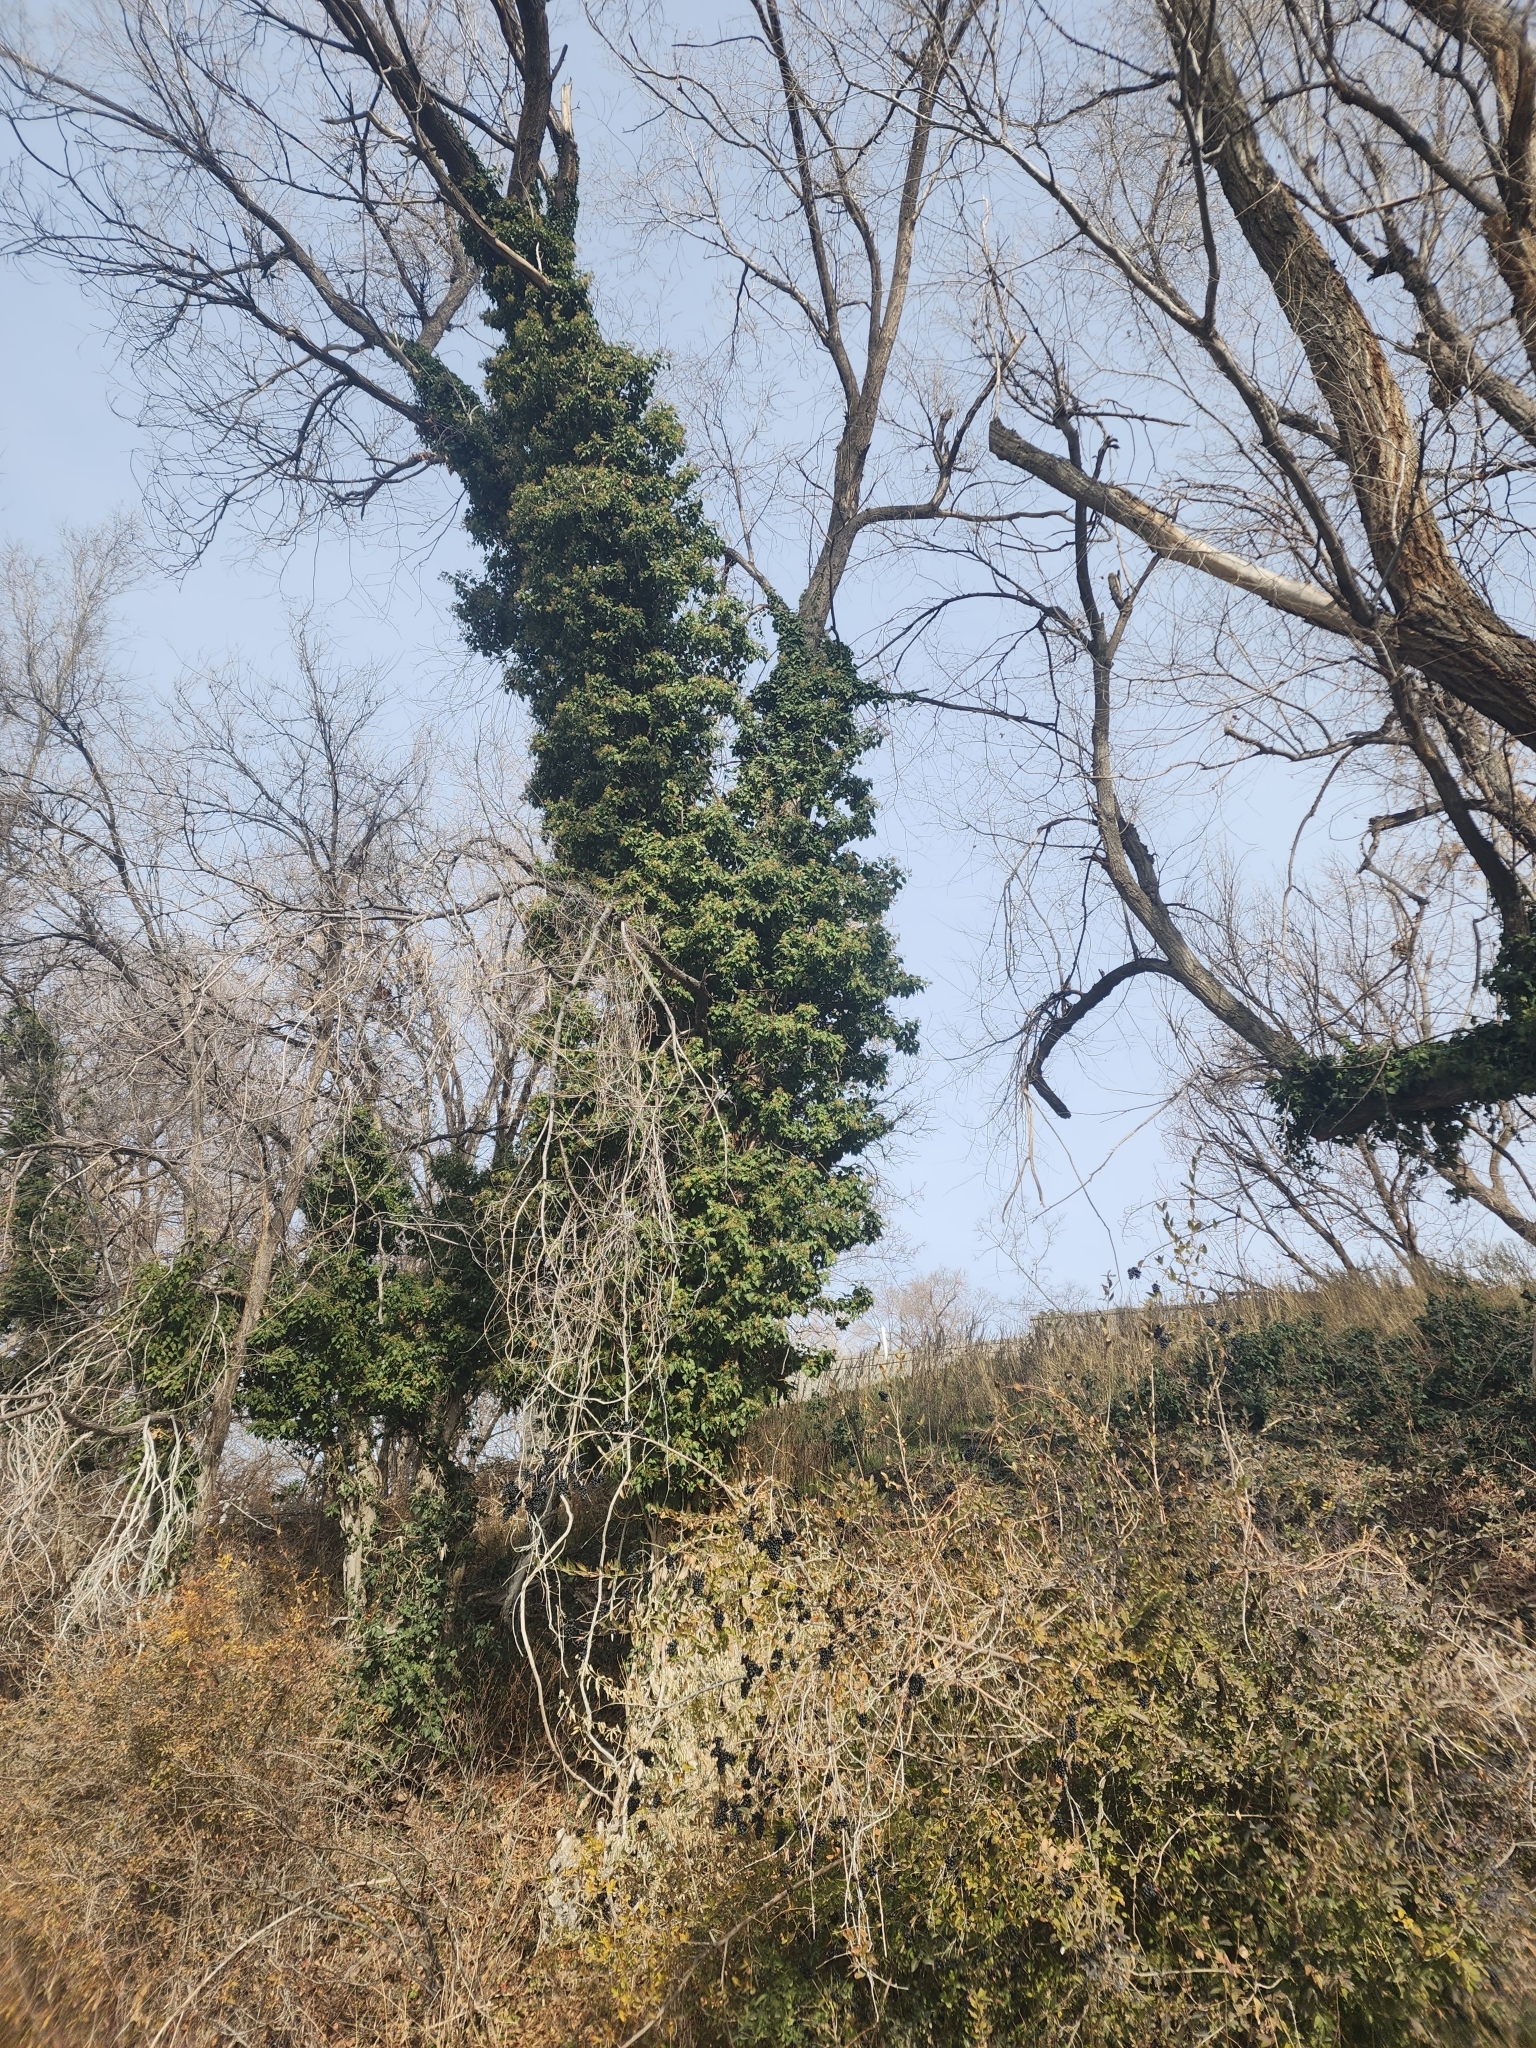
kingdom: Plantae
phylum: Tracheophyta
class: Magnoliopsida
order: Apiales
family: Araliaceae
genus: Hedera
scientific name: Hedera helix
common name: Ivy
